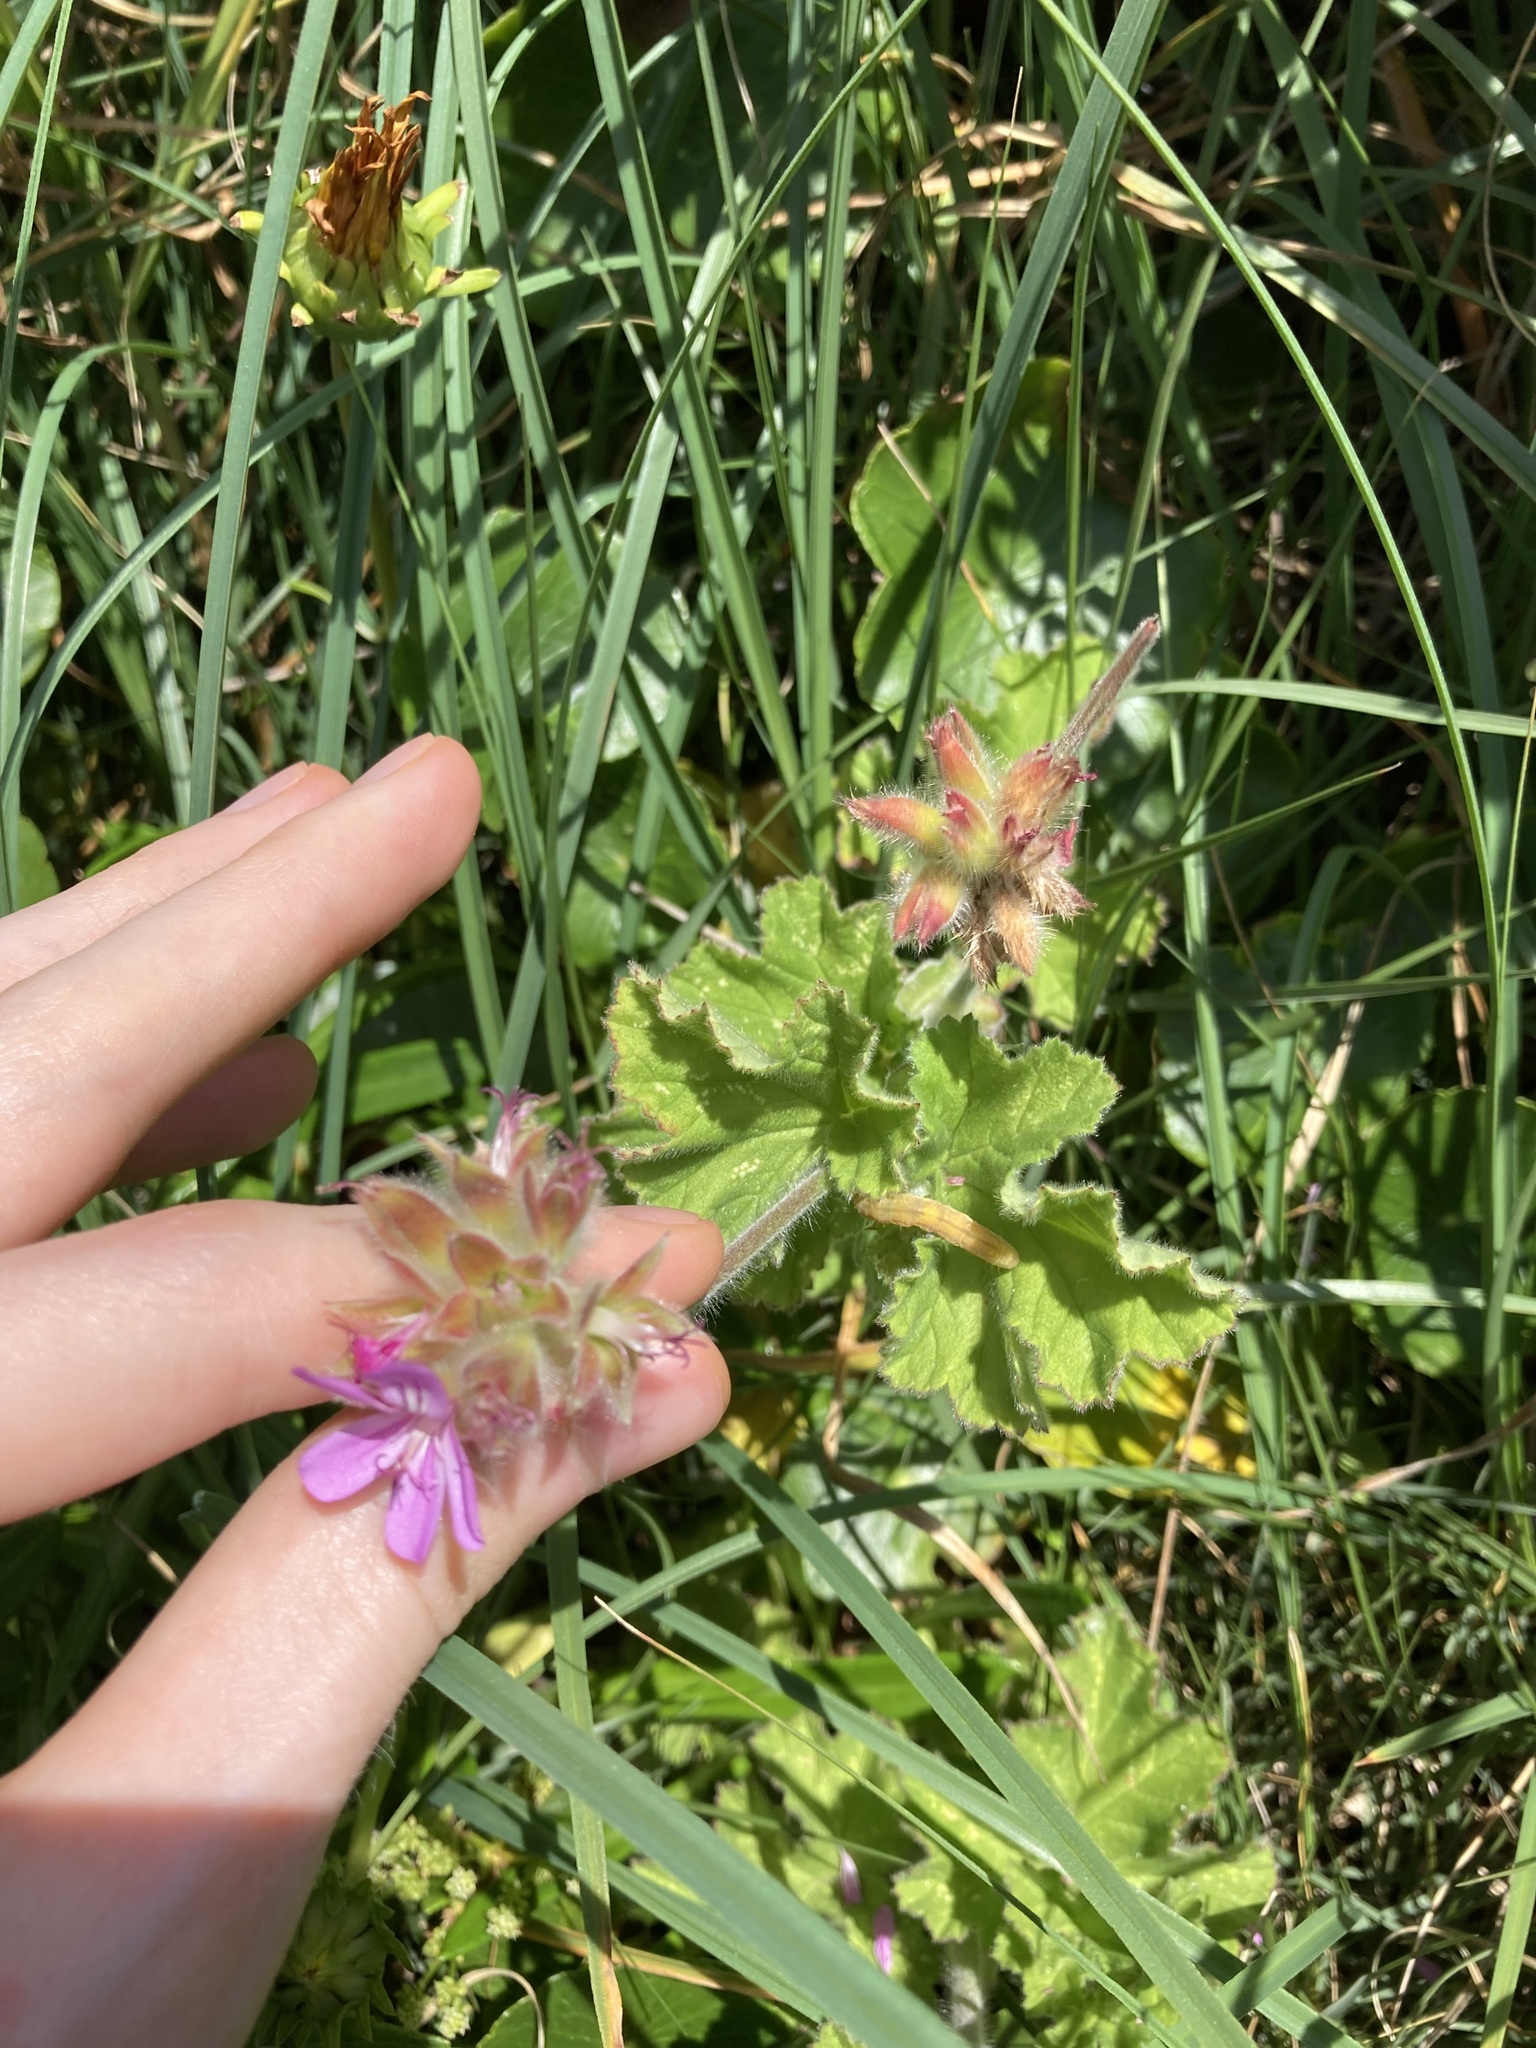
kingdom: Plantae
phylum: Tracheophyta
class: Magnoliopsida
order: Geraniales
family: Geraniaceae
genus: Pelargonium
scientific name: Pelargonium capitatum
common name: Rose scented geranium
